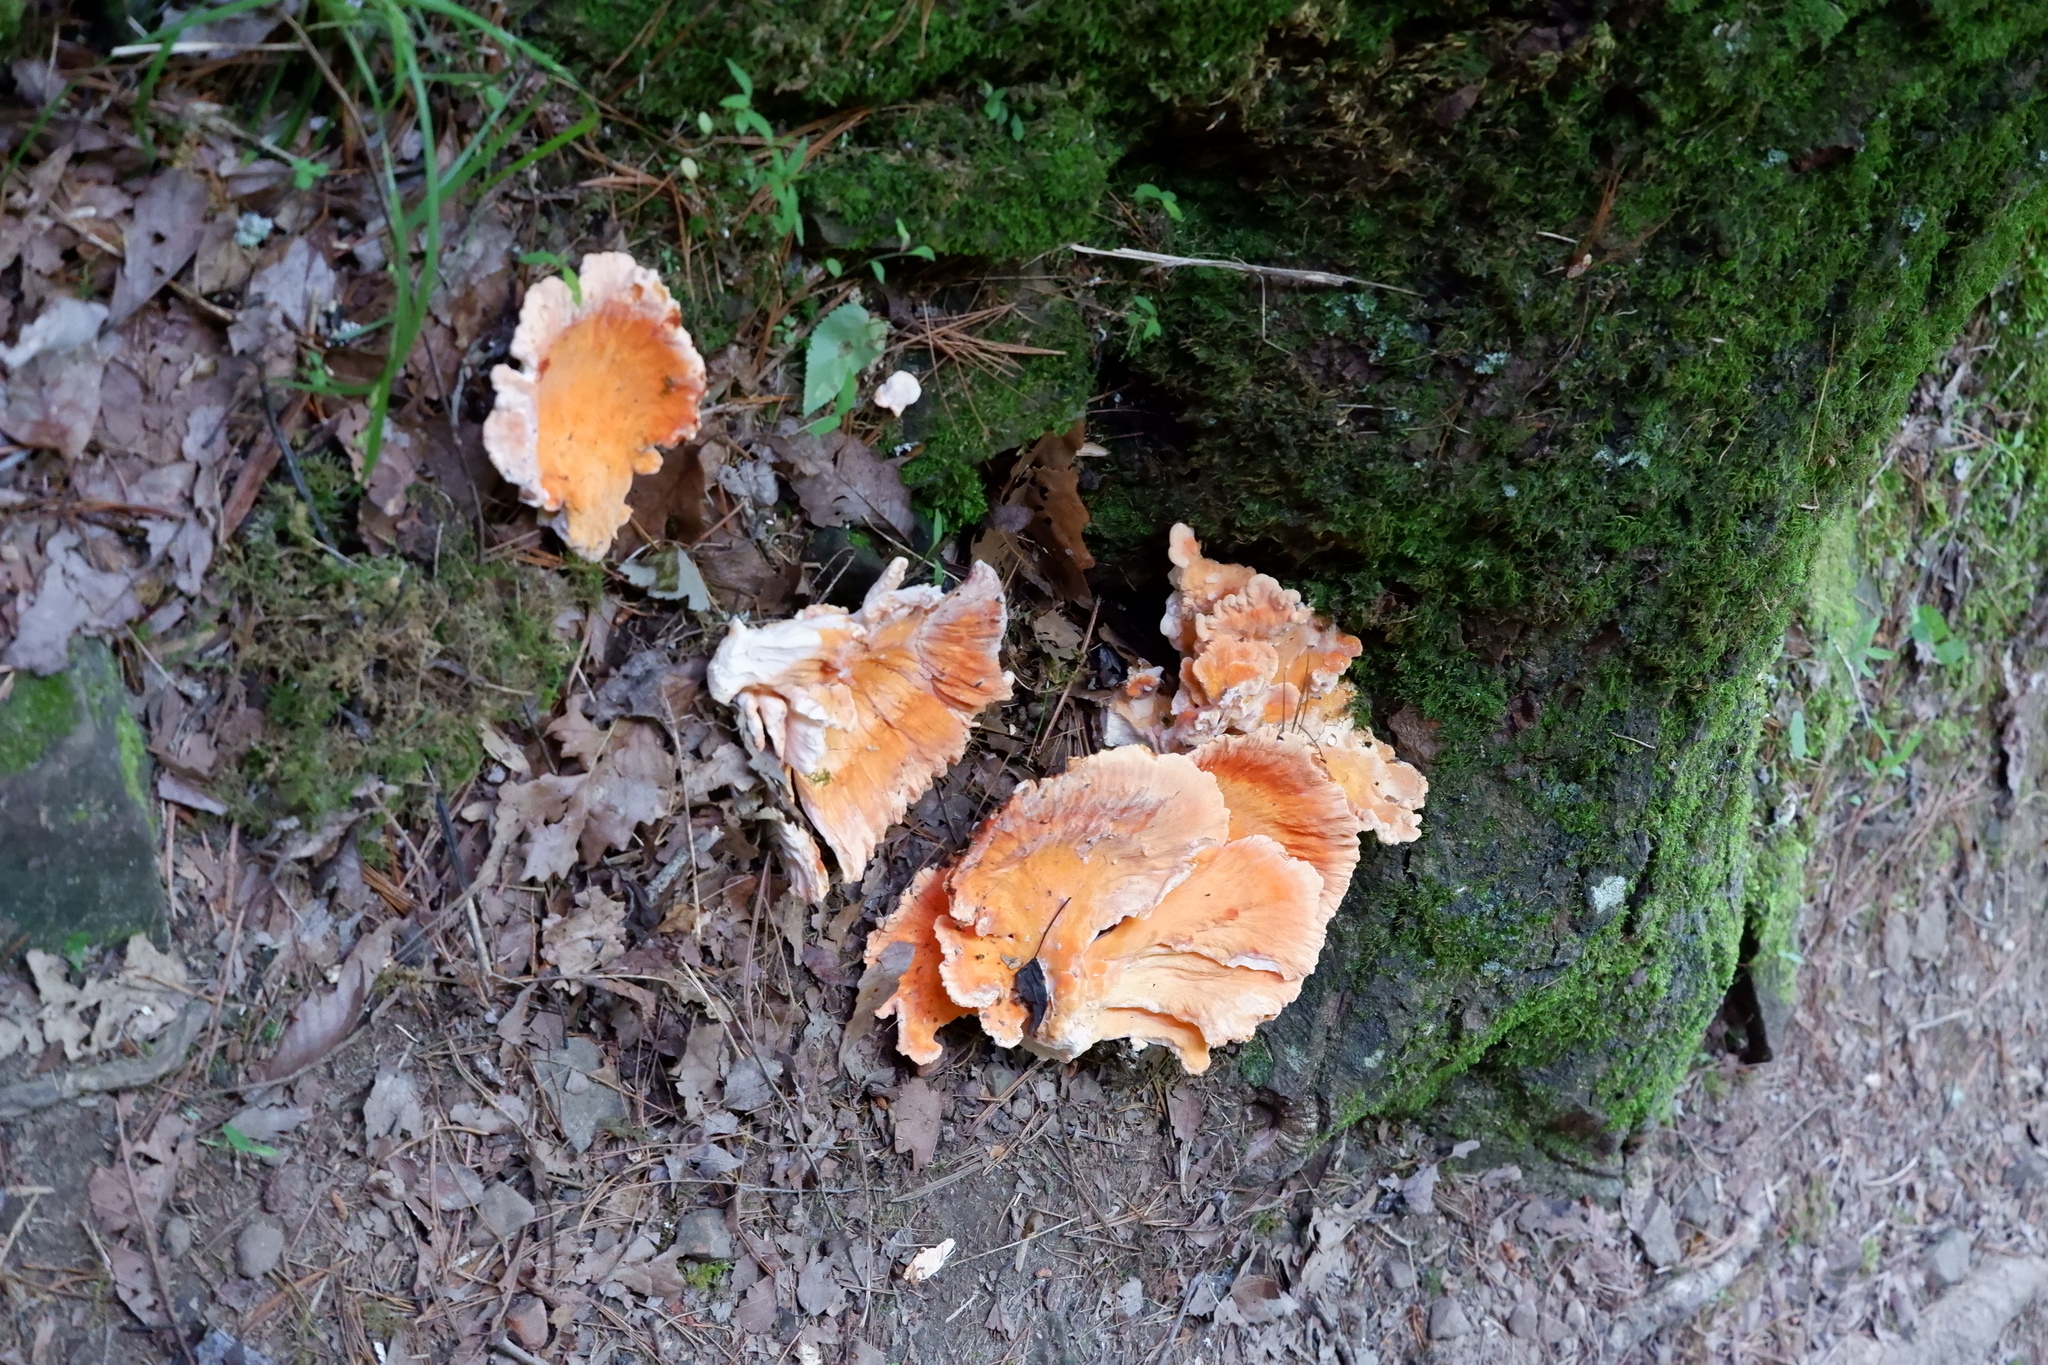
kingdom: Fungi
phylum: Basidiomycota
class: Agaricomycetes
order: Polyporales
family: Laetiporaceae
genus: Laetiporus
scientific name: Laetiporus sulphureus
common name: Chicken of the woods
